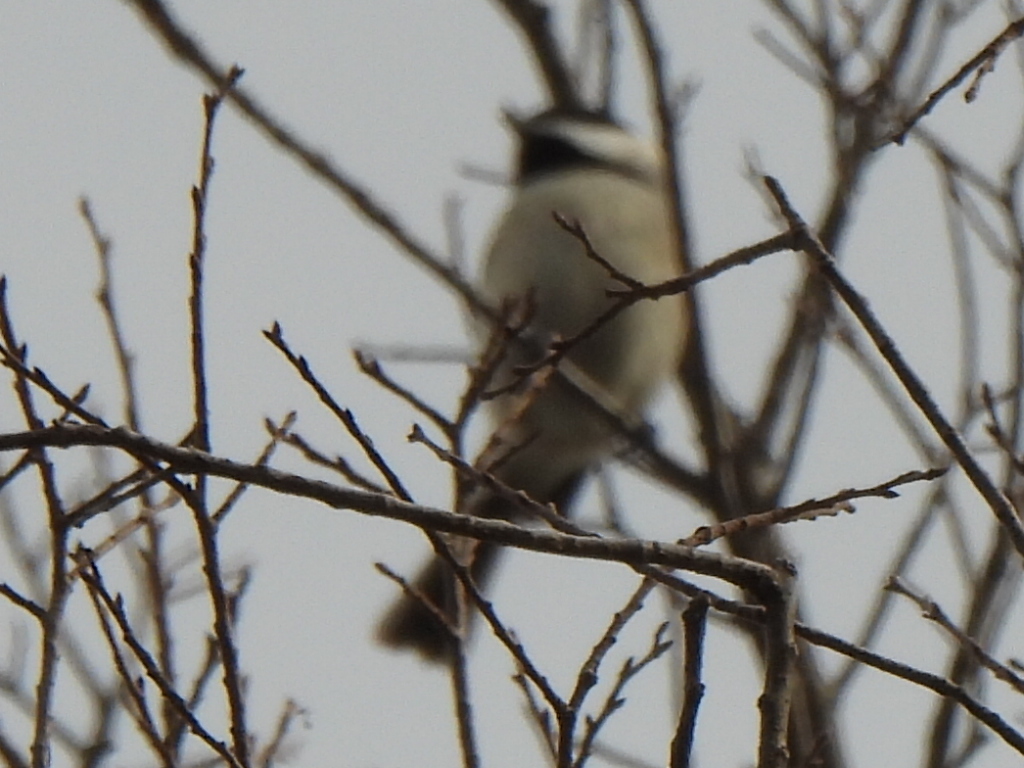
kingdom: Animalia
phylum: Chordata
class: Aves
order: Passeriformes
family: Paridae
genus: Poecile
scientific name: Poecile carolinensis
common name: Carolina chickadee
